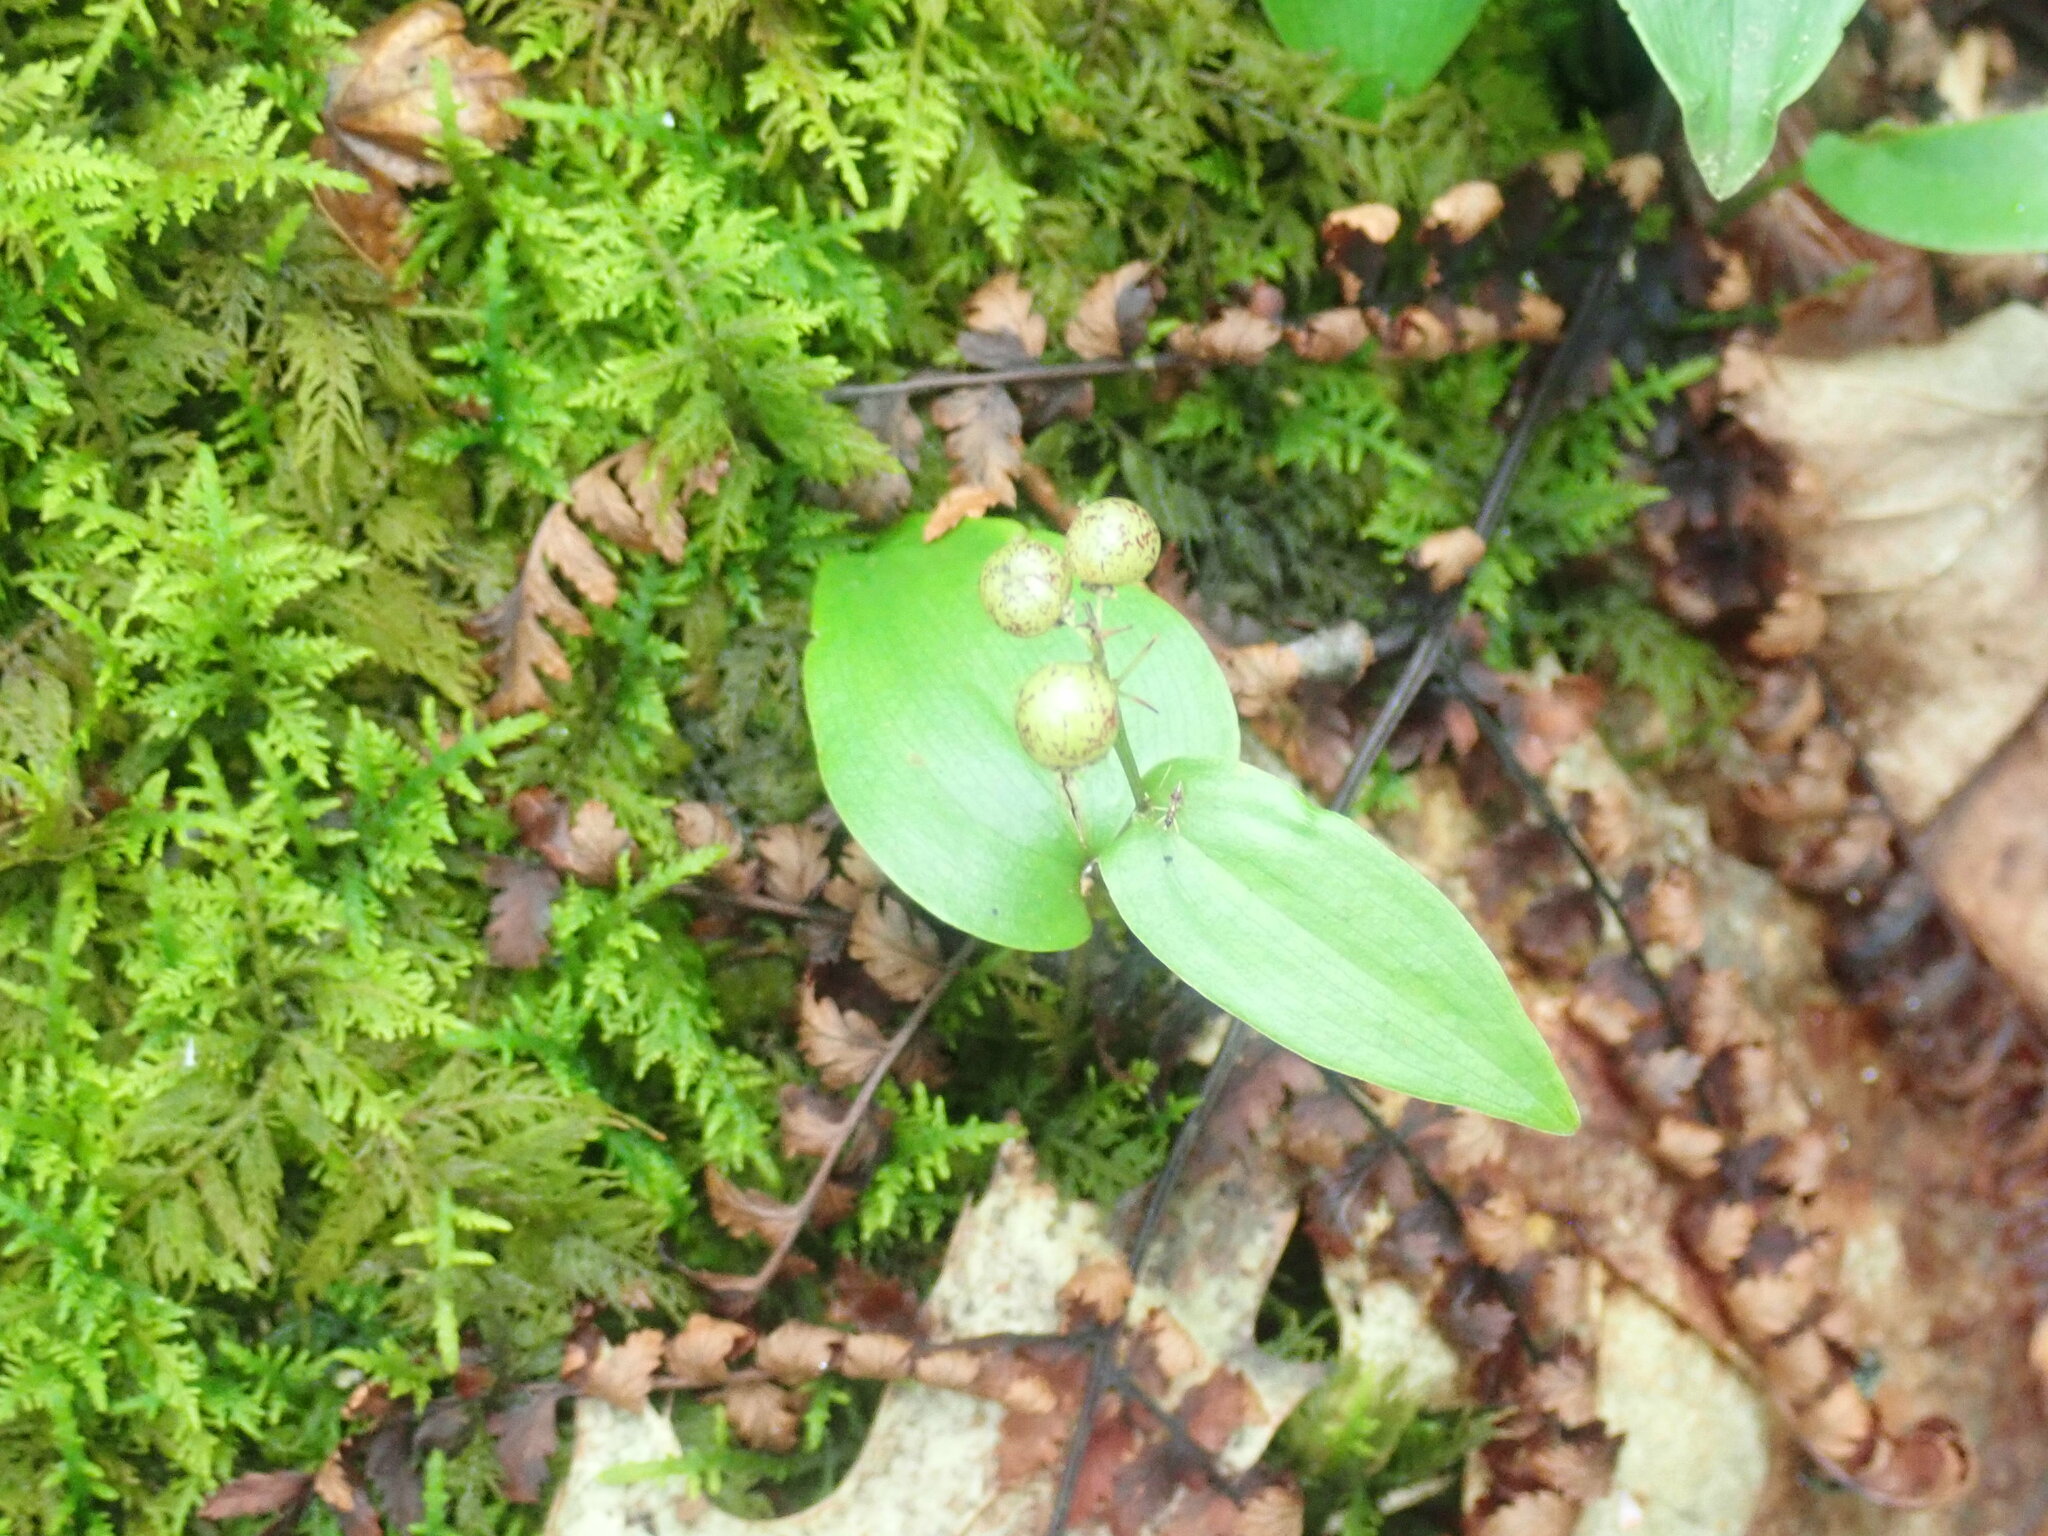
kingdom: Plantae
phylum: Tracheophyta
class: Liliopsida
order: Asparagales
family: Asparagaceae
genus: Maianthemum
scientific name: Maianthemum canadense
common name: False lily-of-the-valley
